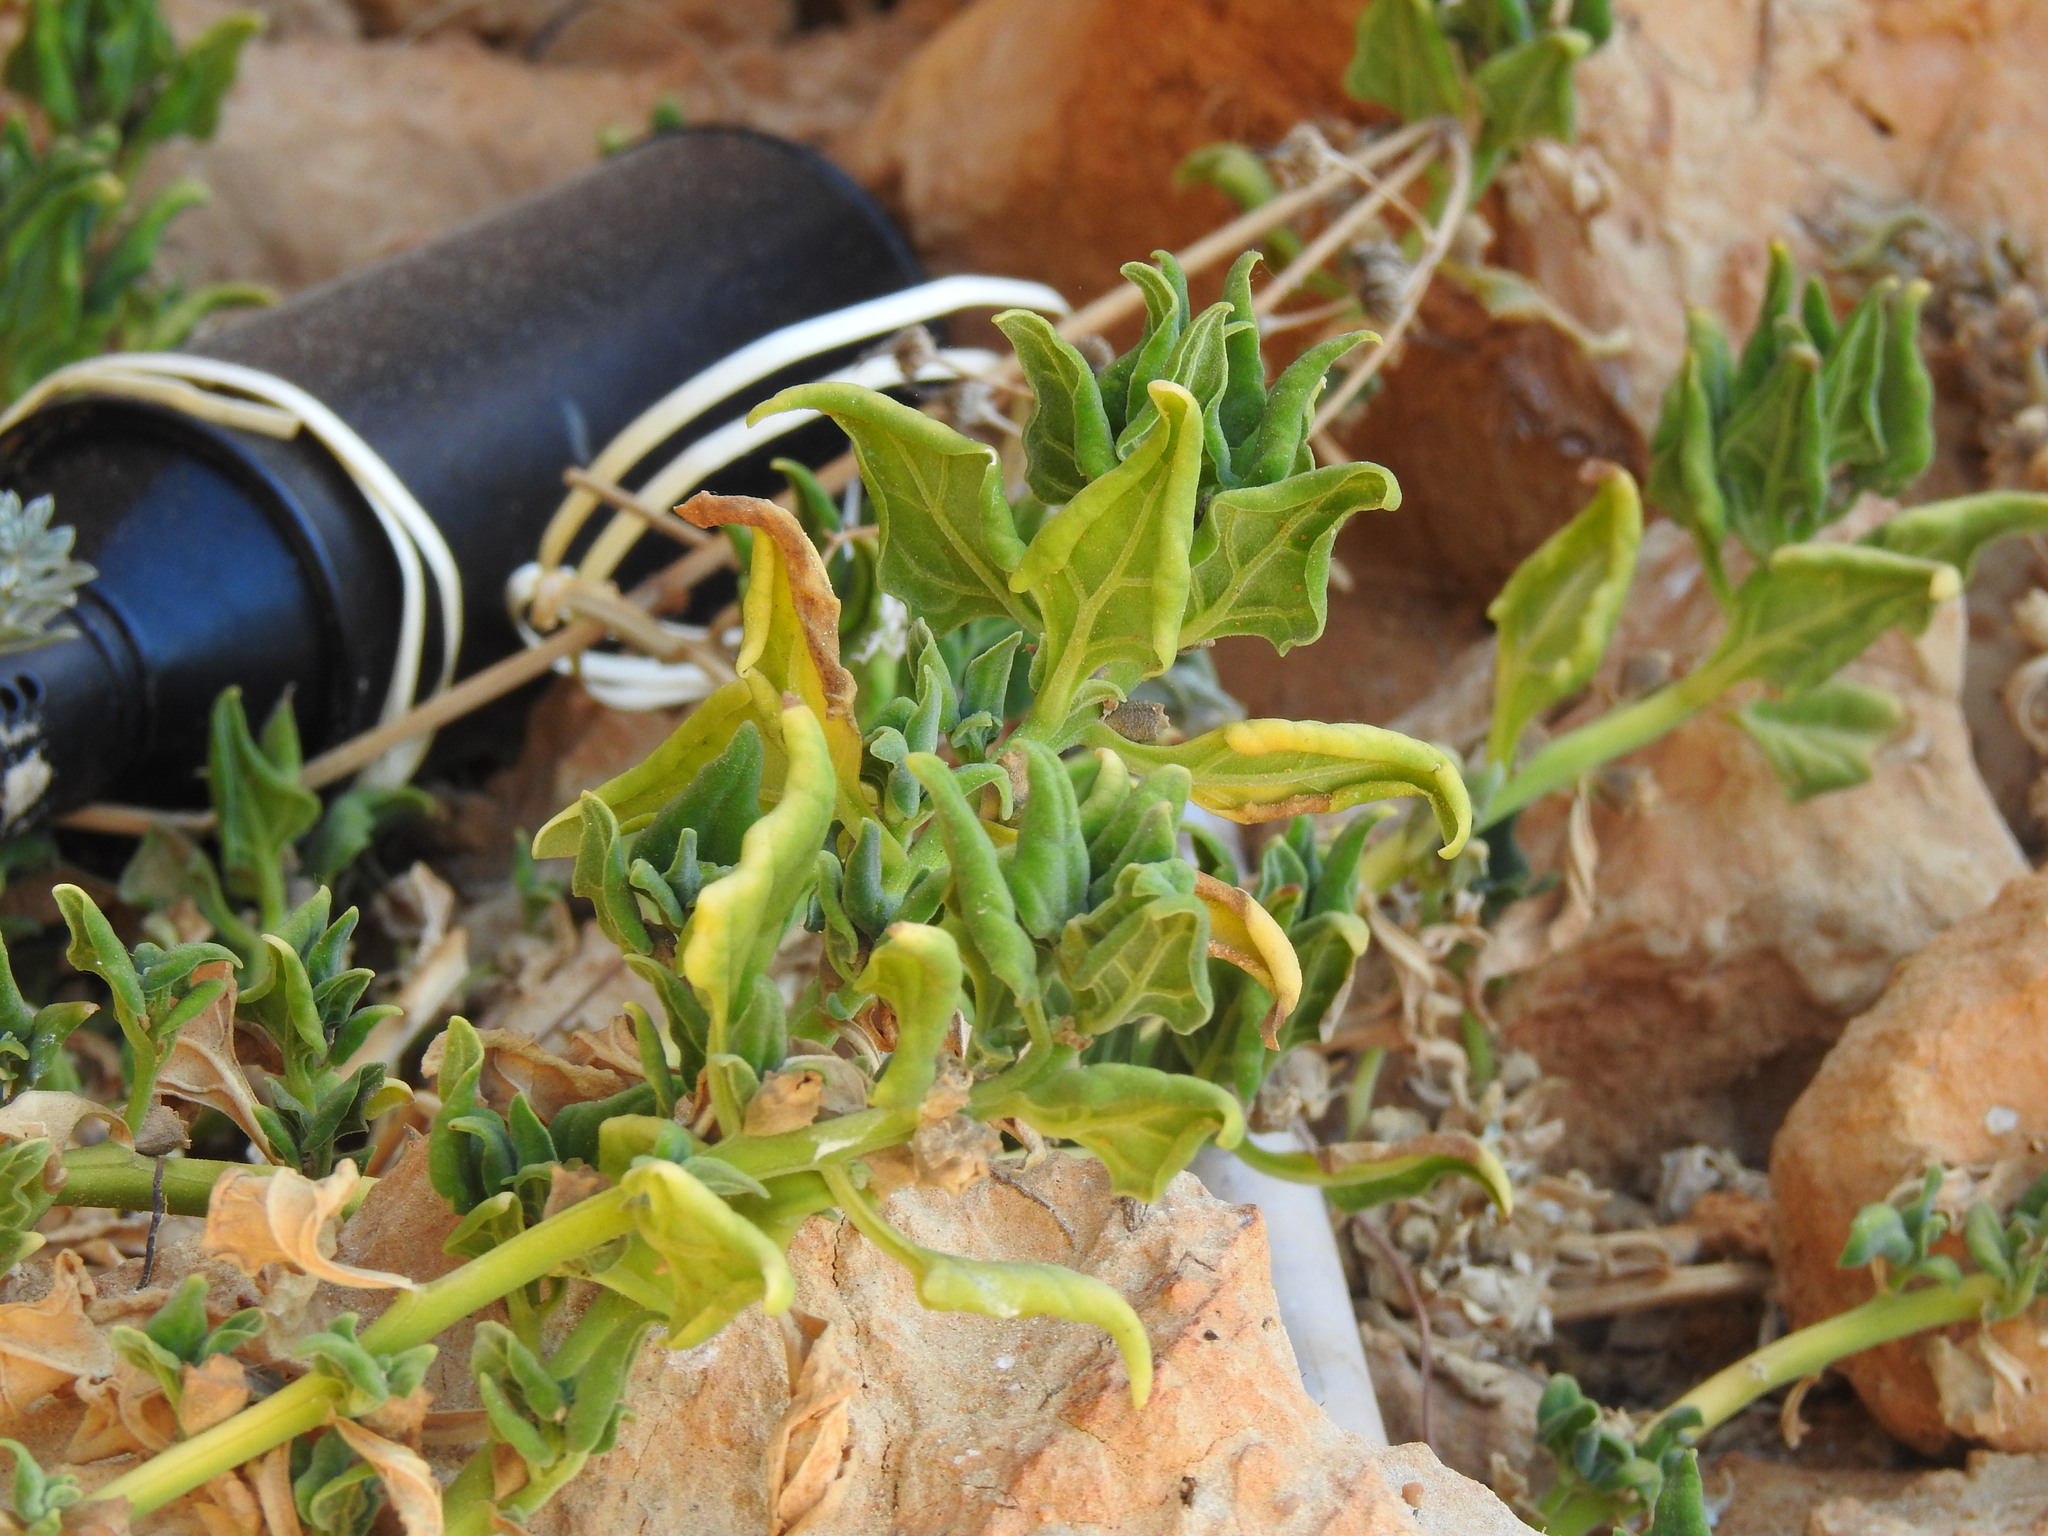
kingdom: Plantae
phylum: Tracheophyta
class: Magnoliopsida
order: Caryophyllales
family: Aizoaceae
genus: Tetragonia
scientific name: Tetragonia tetragonoides
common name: New zealand-spinach
